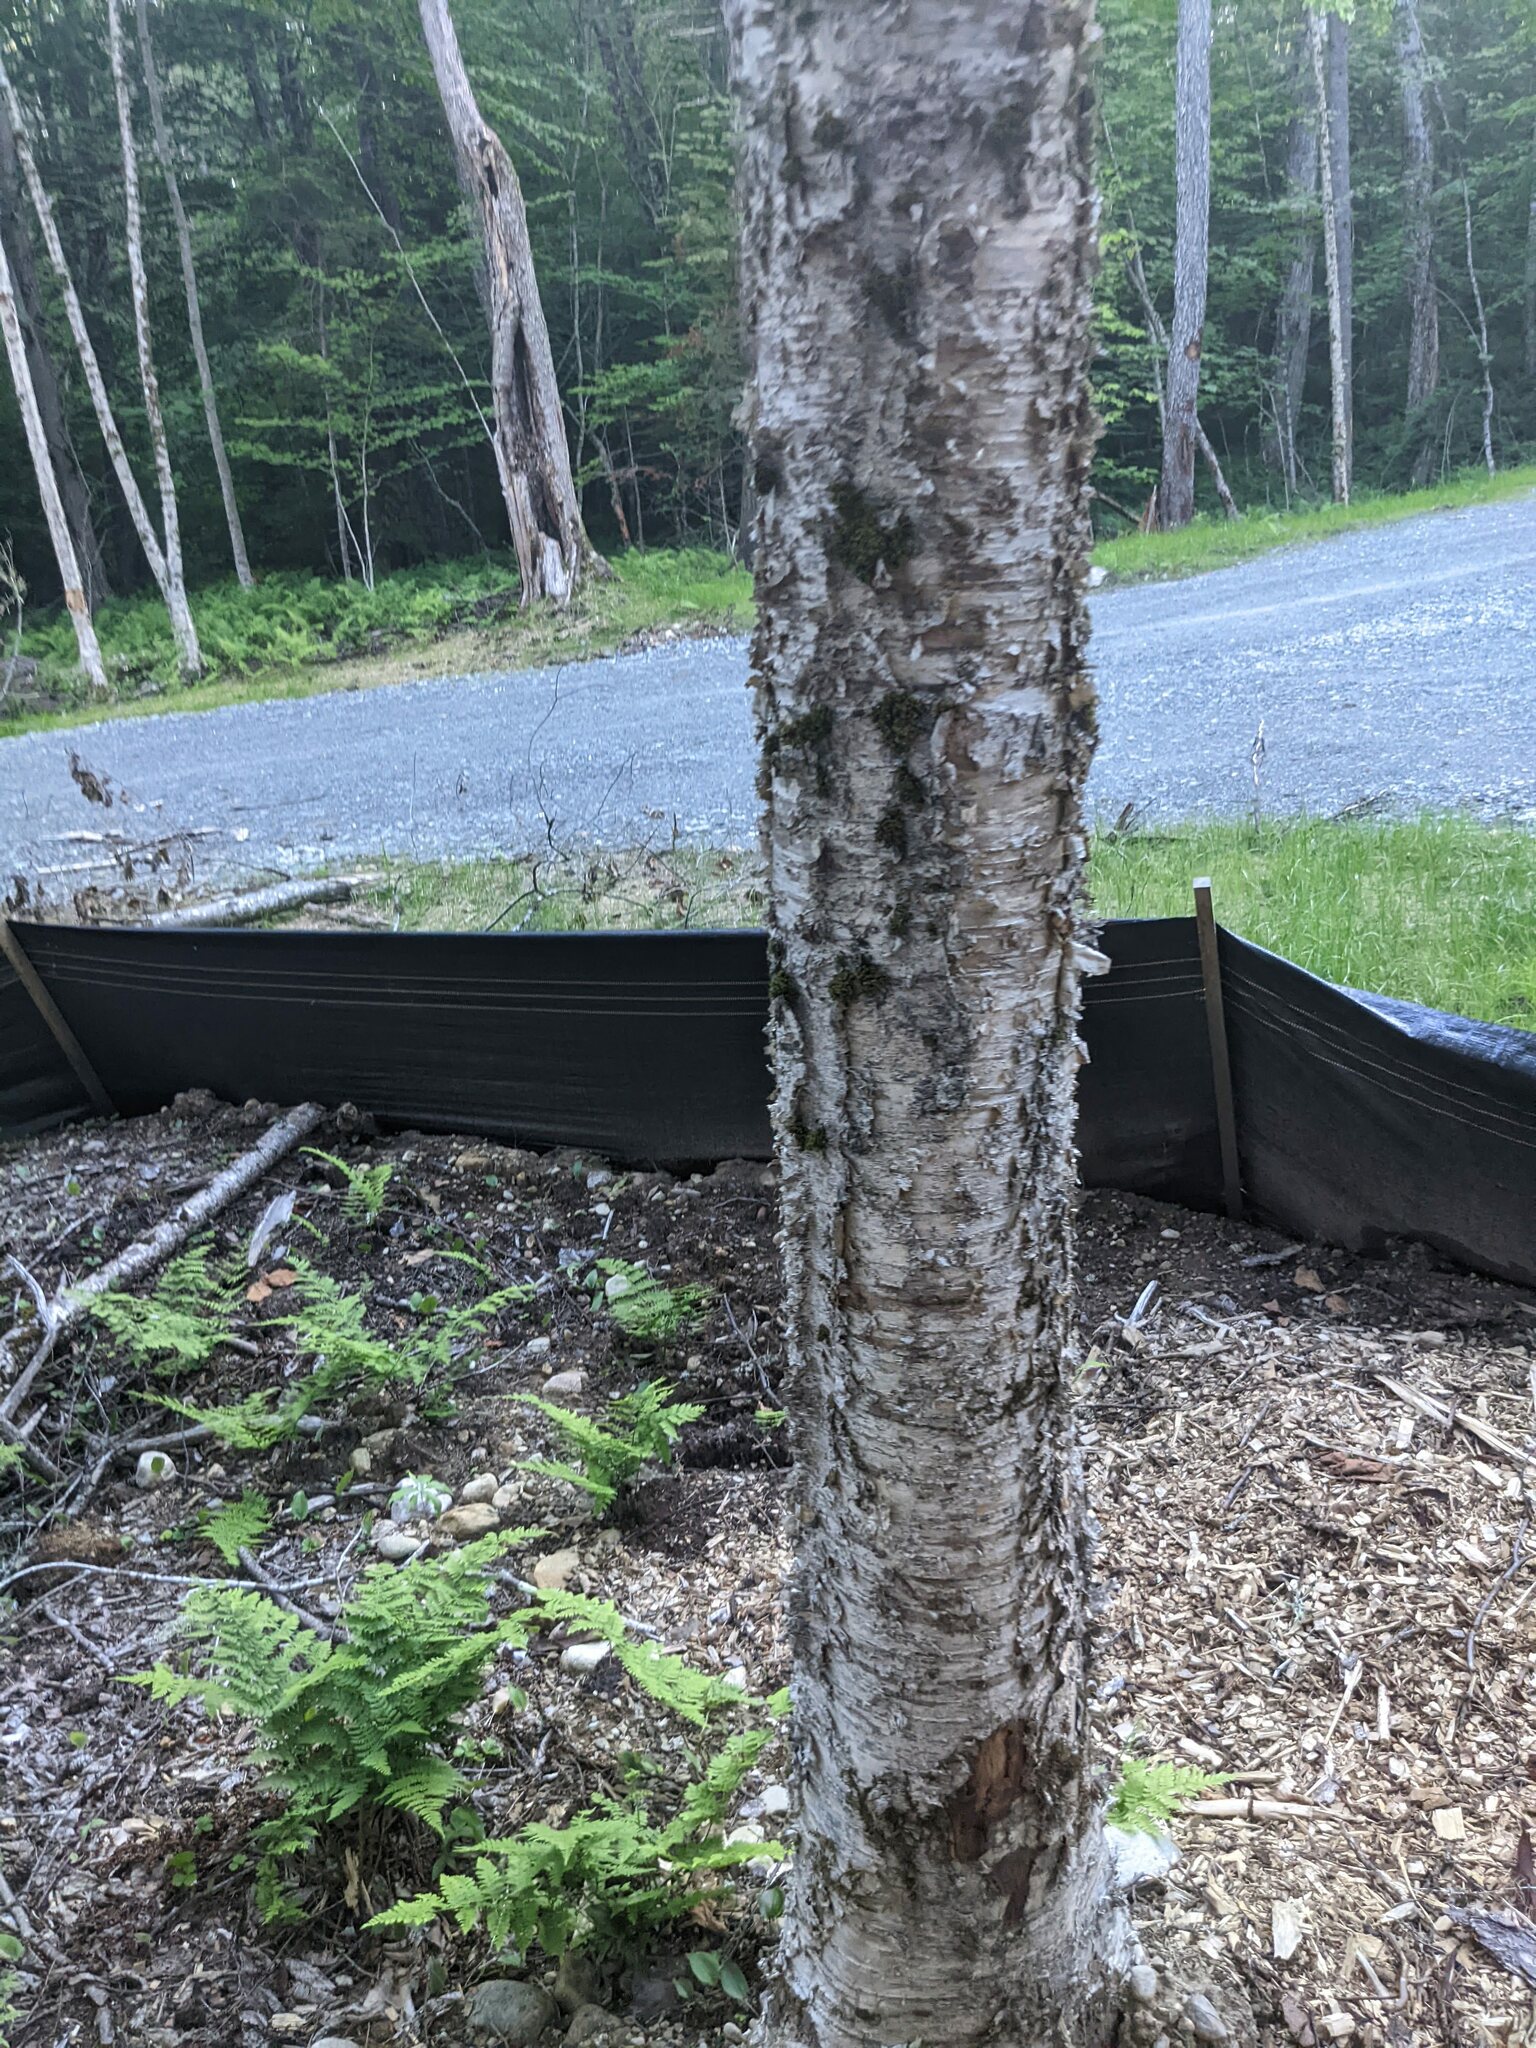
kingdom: Plantae
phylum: Tracheophyta
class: Magnoliopsida
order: Fagales
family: Betulaceae
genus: Betula
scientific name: Betula alleghaniensis
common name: Yellow birch
